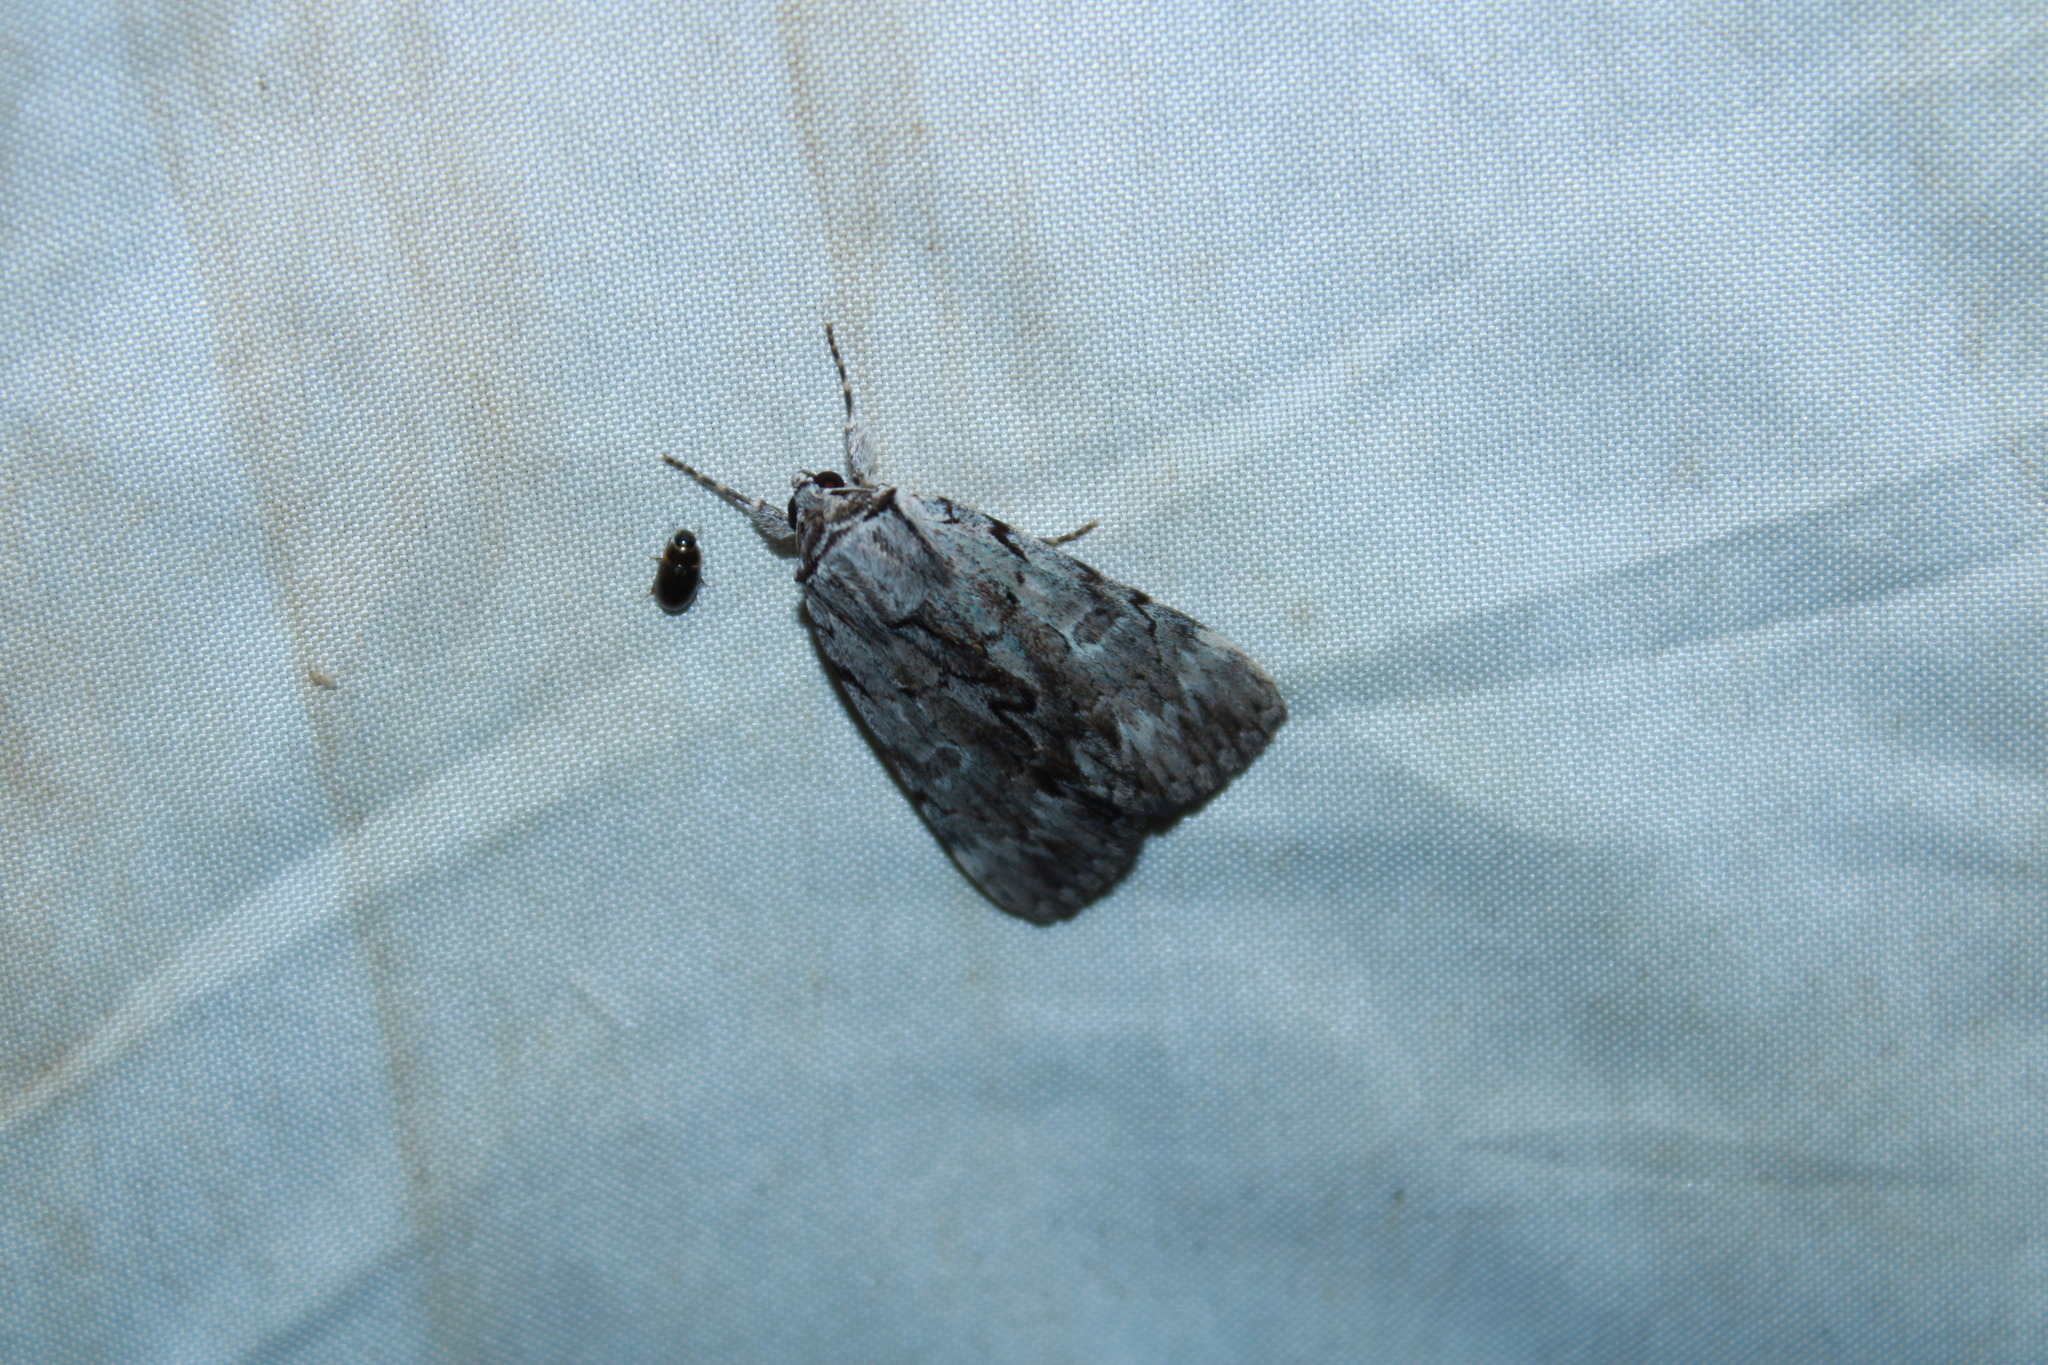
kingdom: Animalia
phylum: Arthropoda
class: Insecta
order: Lepidoptera
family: Erebidae
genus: Catocala
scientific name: Catocala gracilis
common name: Graceful underwing
